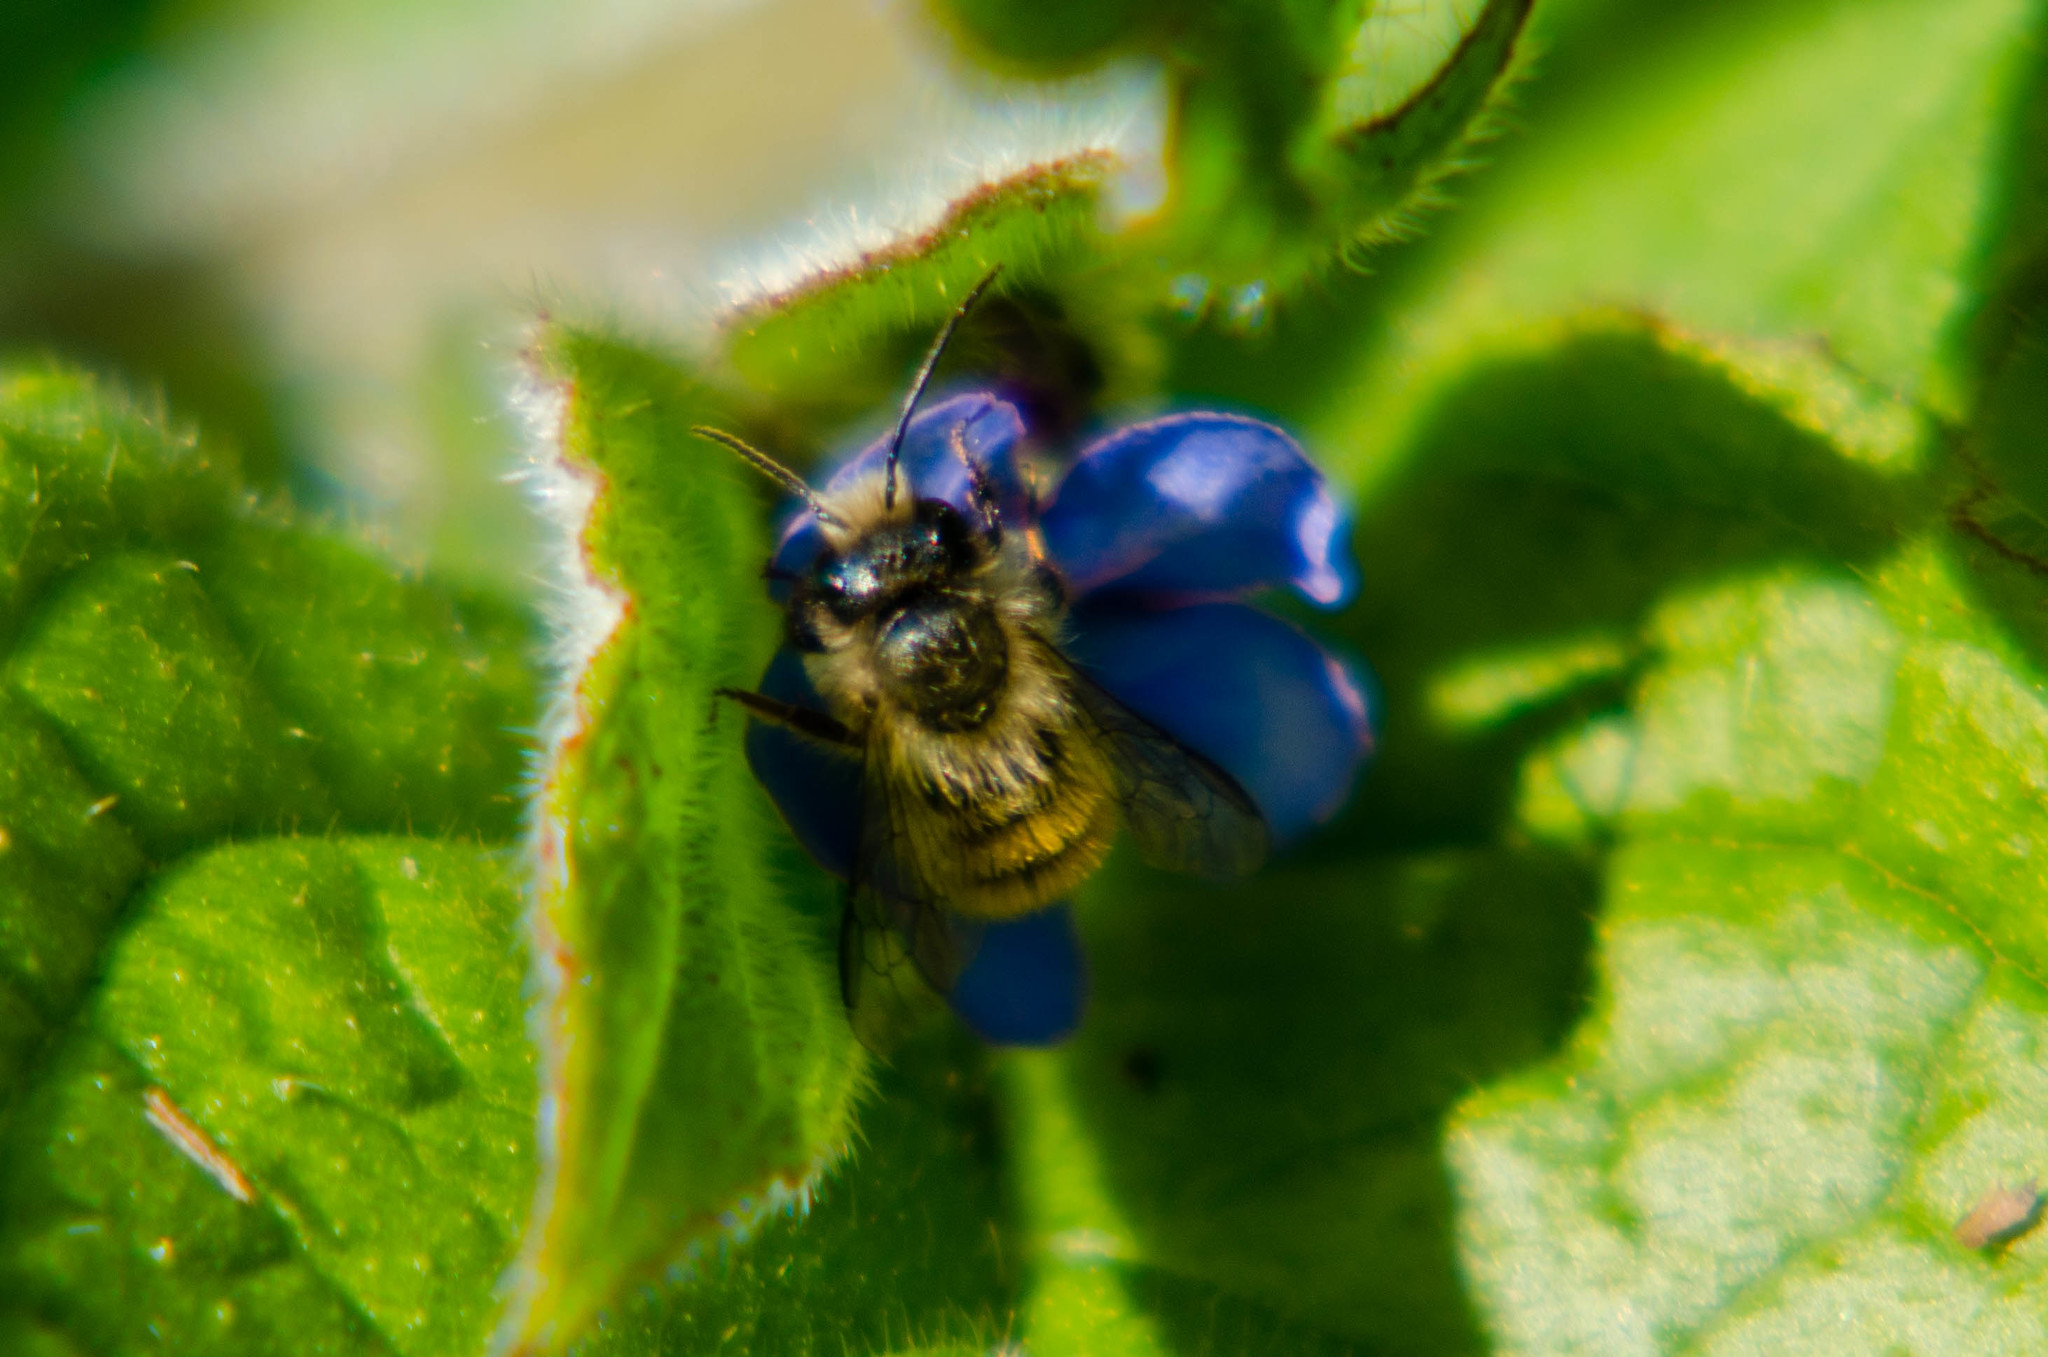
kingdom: Animalia
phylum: Arthropoda
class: Insecta
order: Hymenoptera
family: Megachilidae
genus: Osmia
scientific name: Osmia bicornis
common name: Red mason bee
